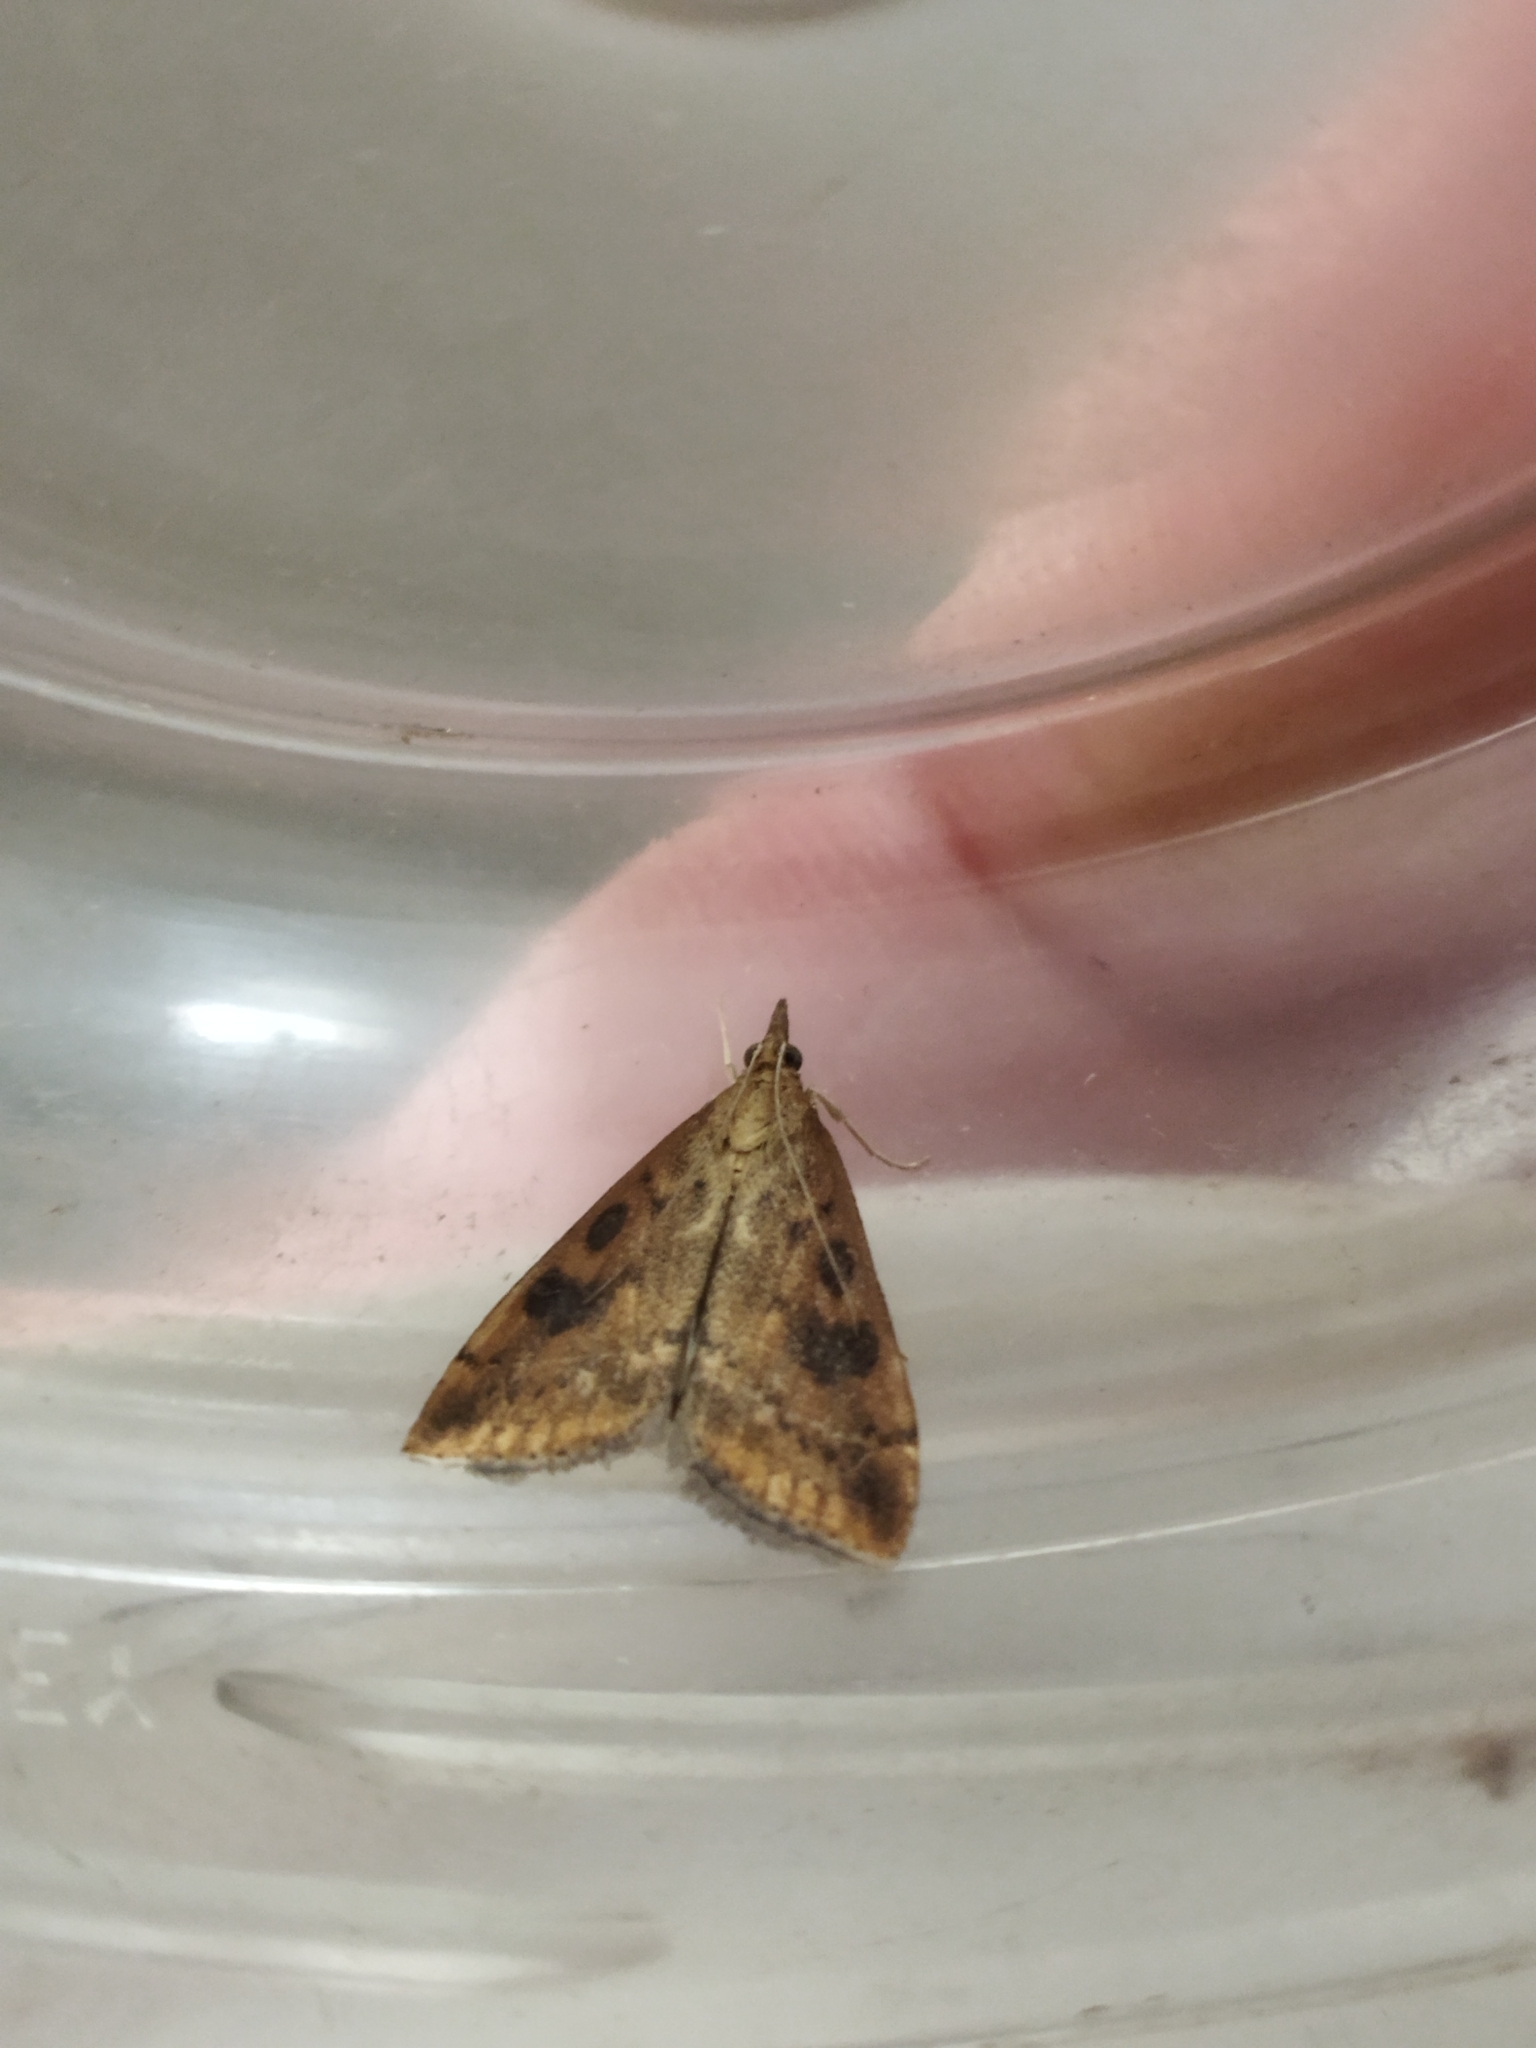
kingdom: Animalia
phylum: Arthropoda
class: Insecta
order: Lepidoptera
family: Crambidae
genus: Udea
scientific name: Udea ferrugalis
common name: Rusty dot
